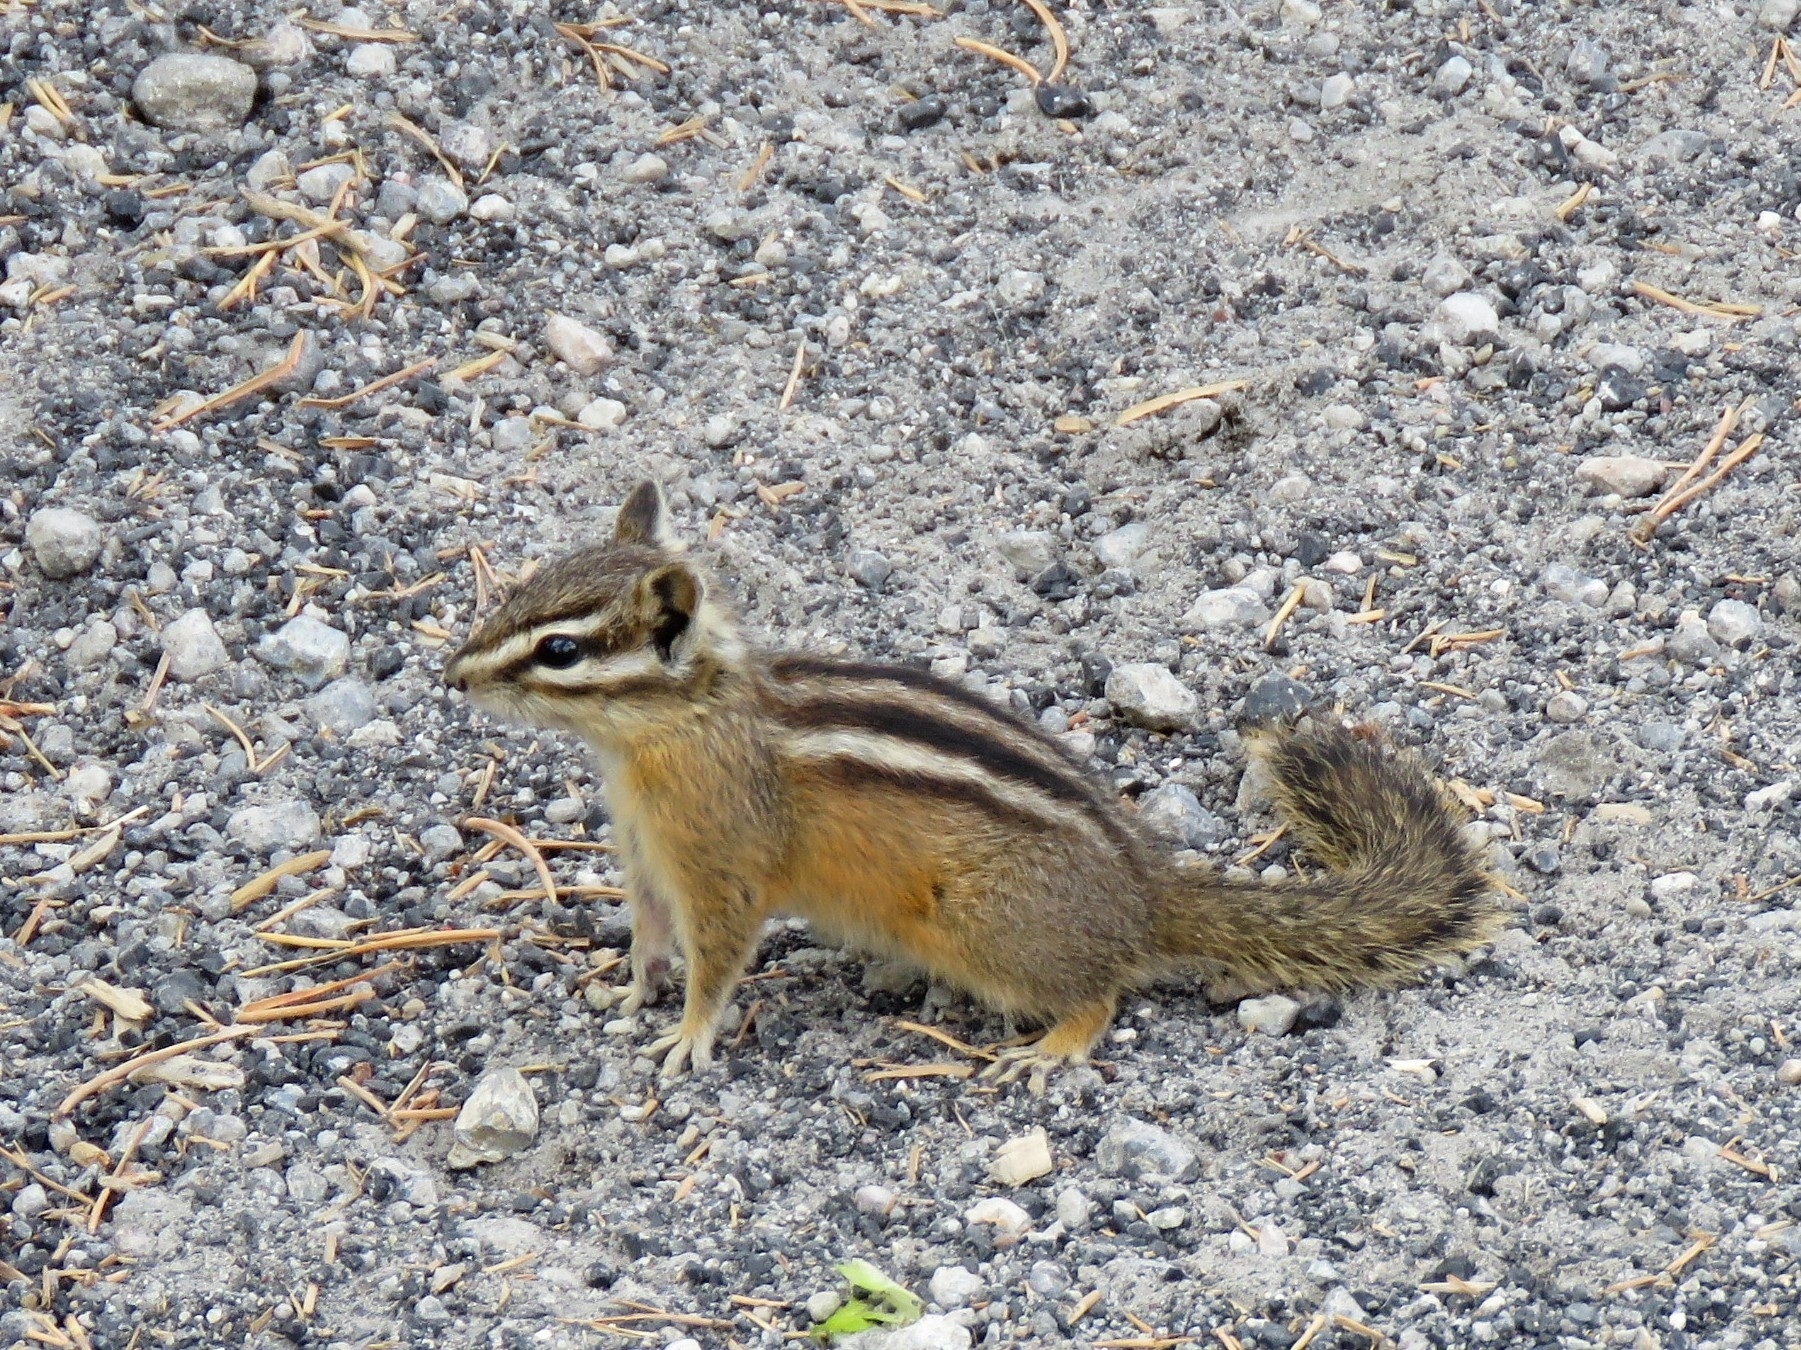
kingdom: Animalia
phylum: Chordata
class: Mammalia
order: Rodentia
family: Sciuridae
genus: Tamias
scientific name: Tamias amoenus
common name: Yellow-pine chipmunk
